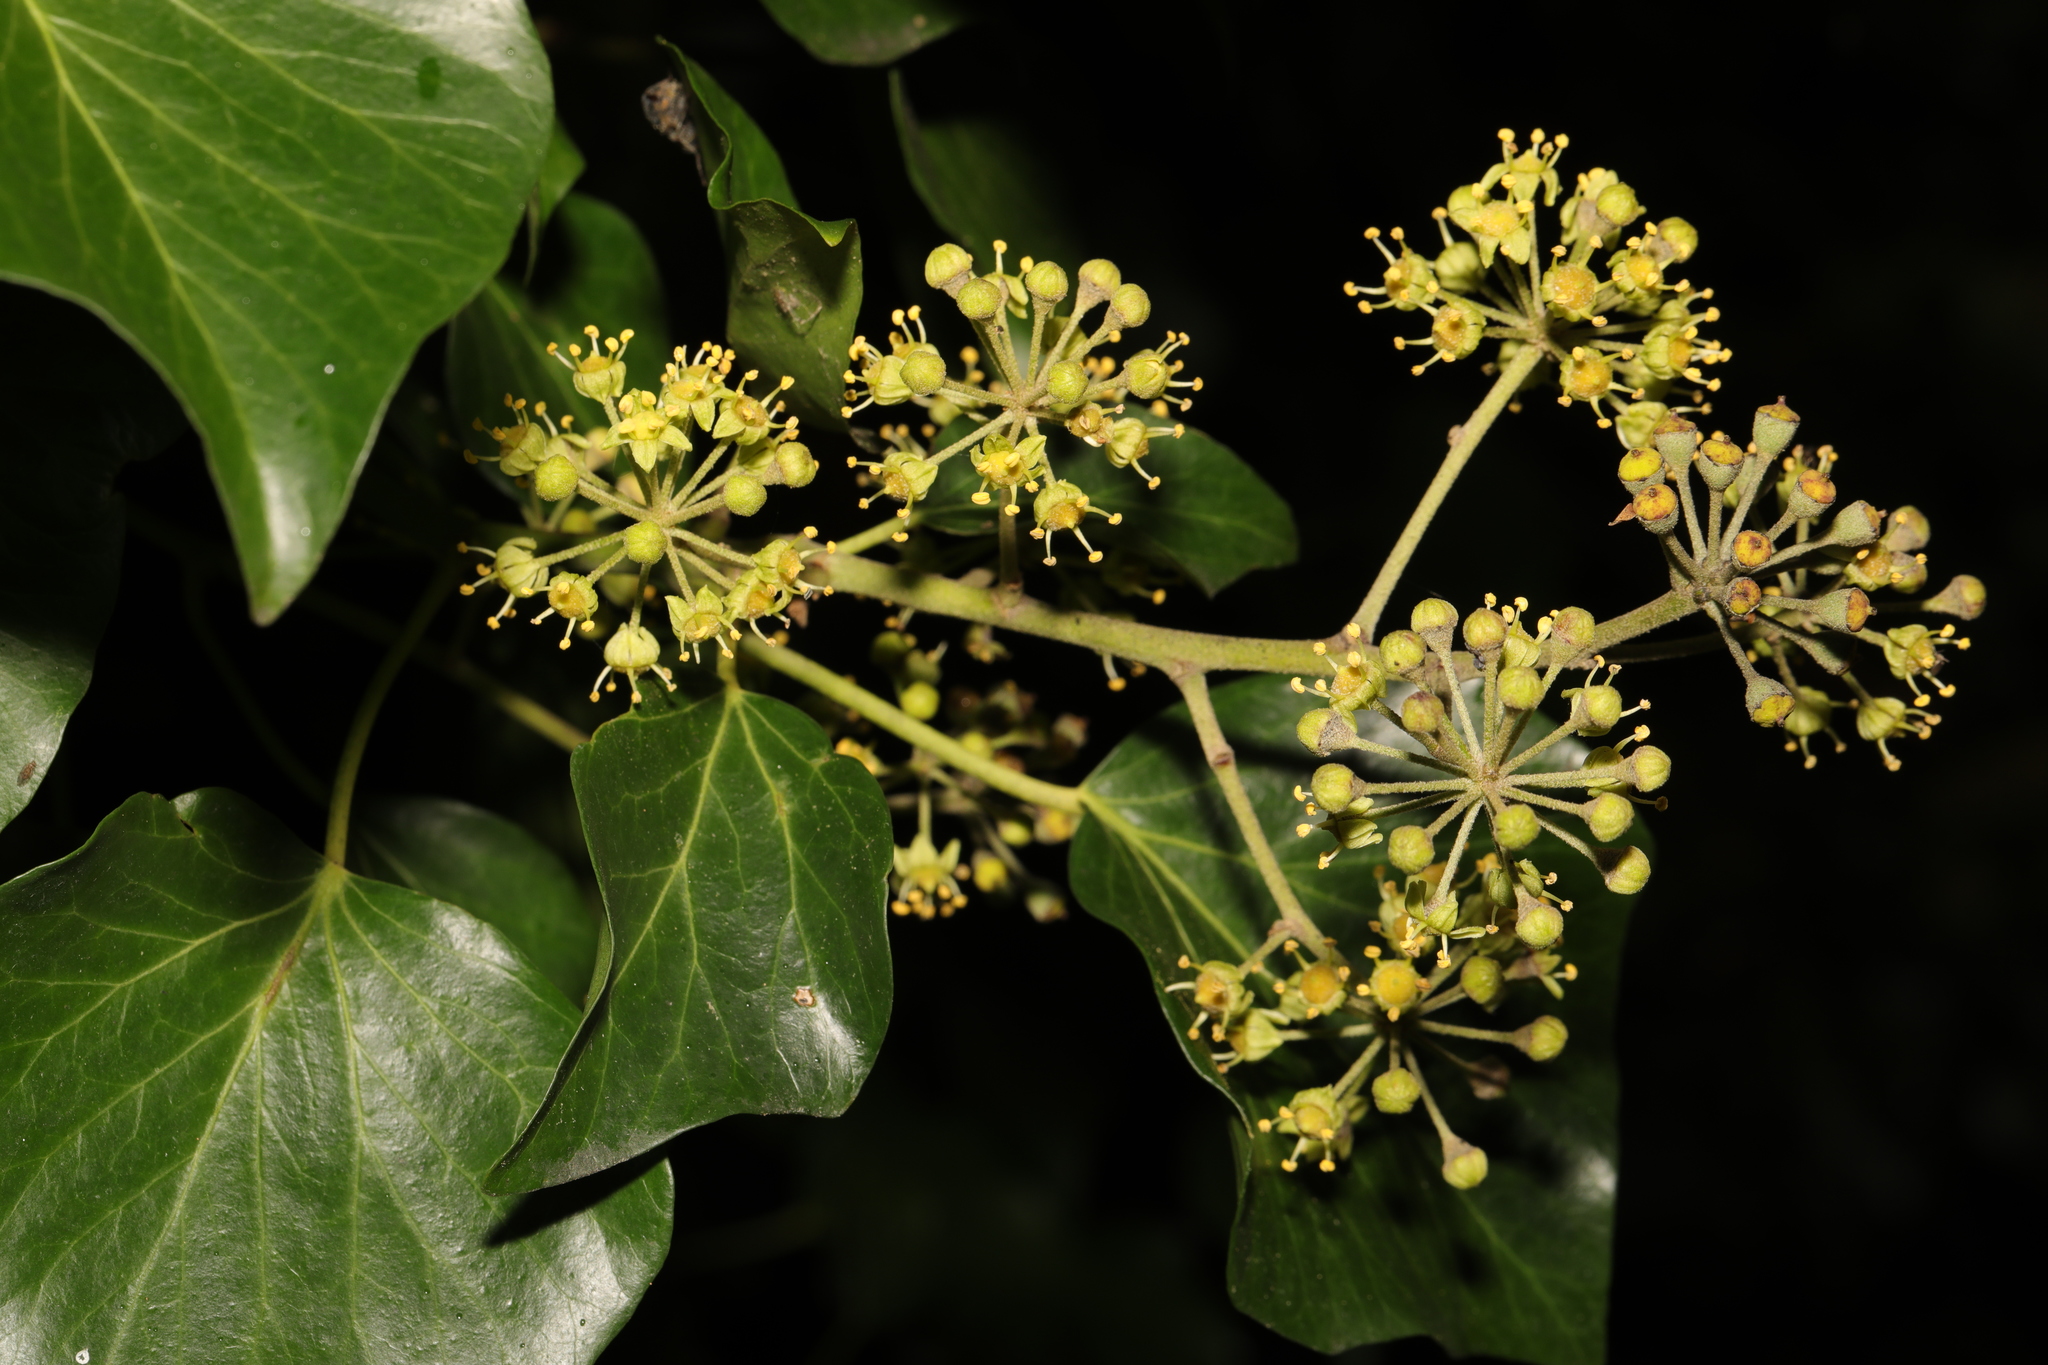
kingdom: Plantae
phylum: Tracheophyta
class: Magnoliopsida
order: Apiales
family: Araliaceae
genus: Hedera
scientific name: Hedera helix
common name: Ivy
